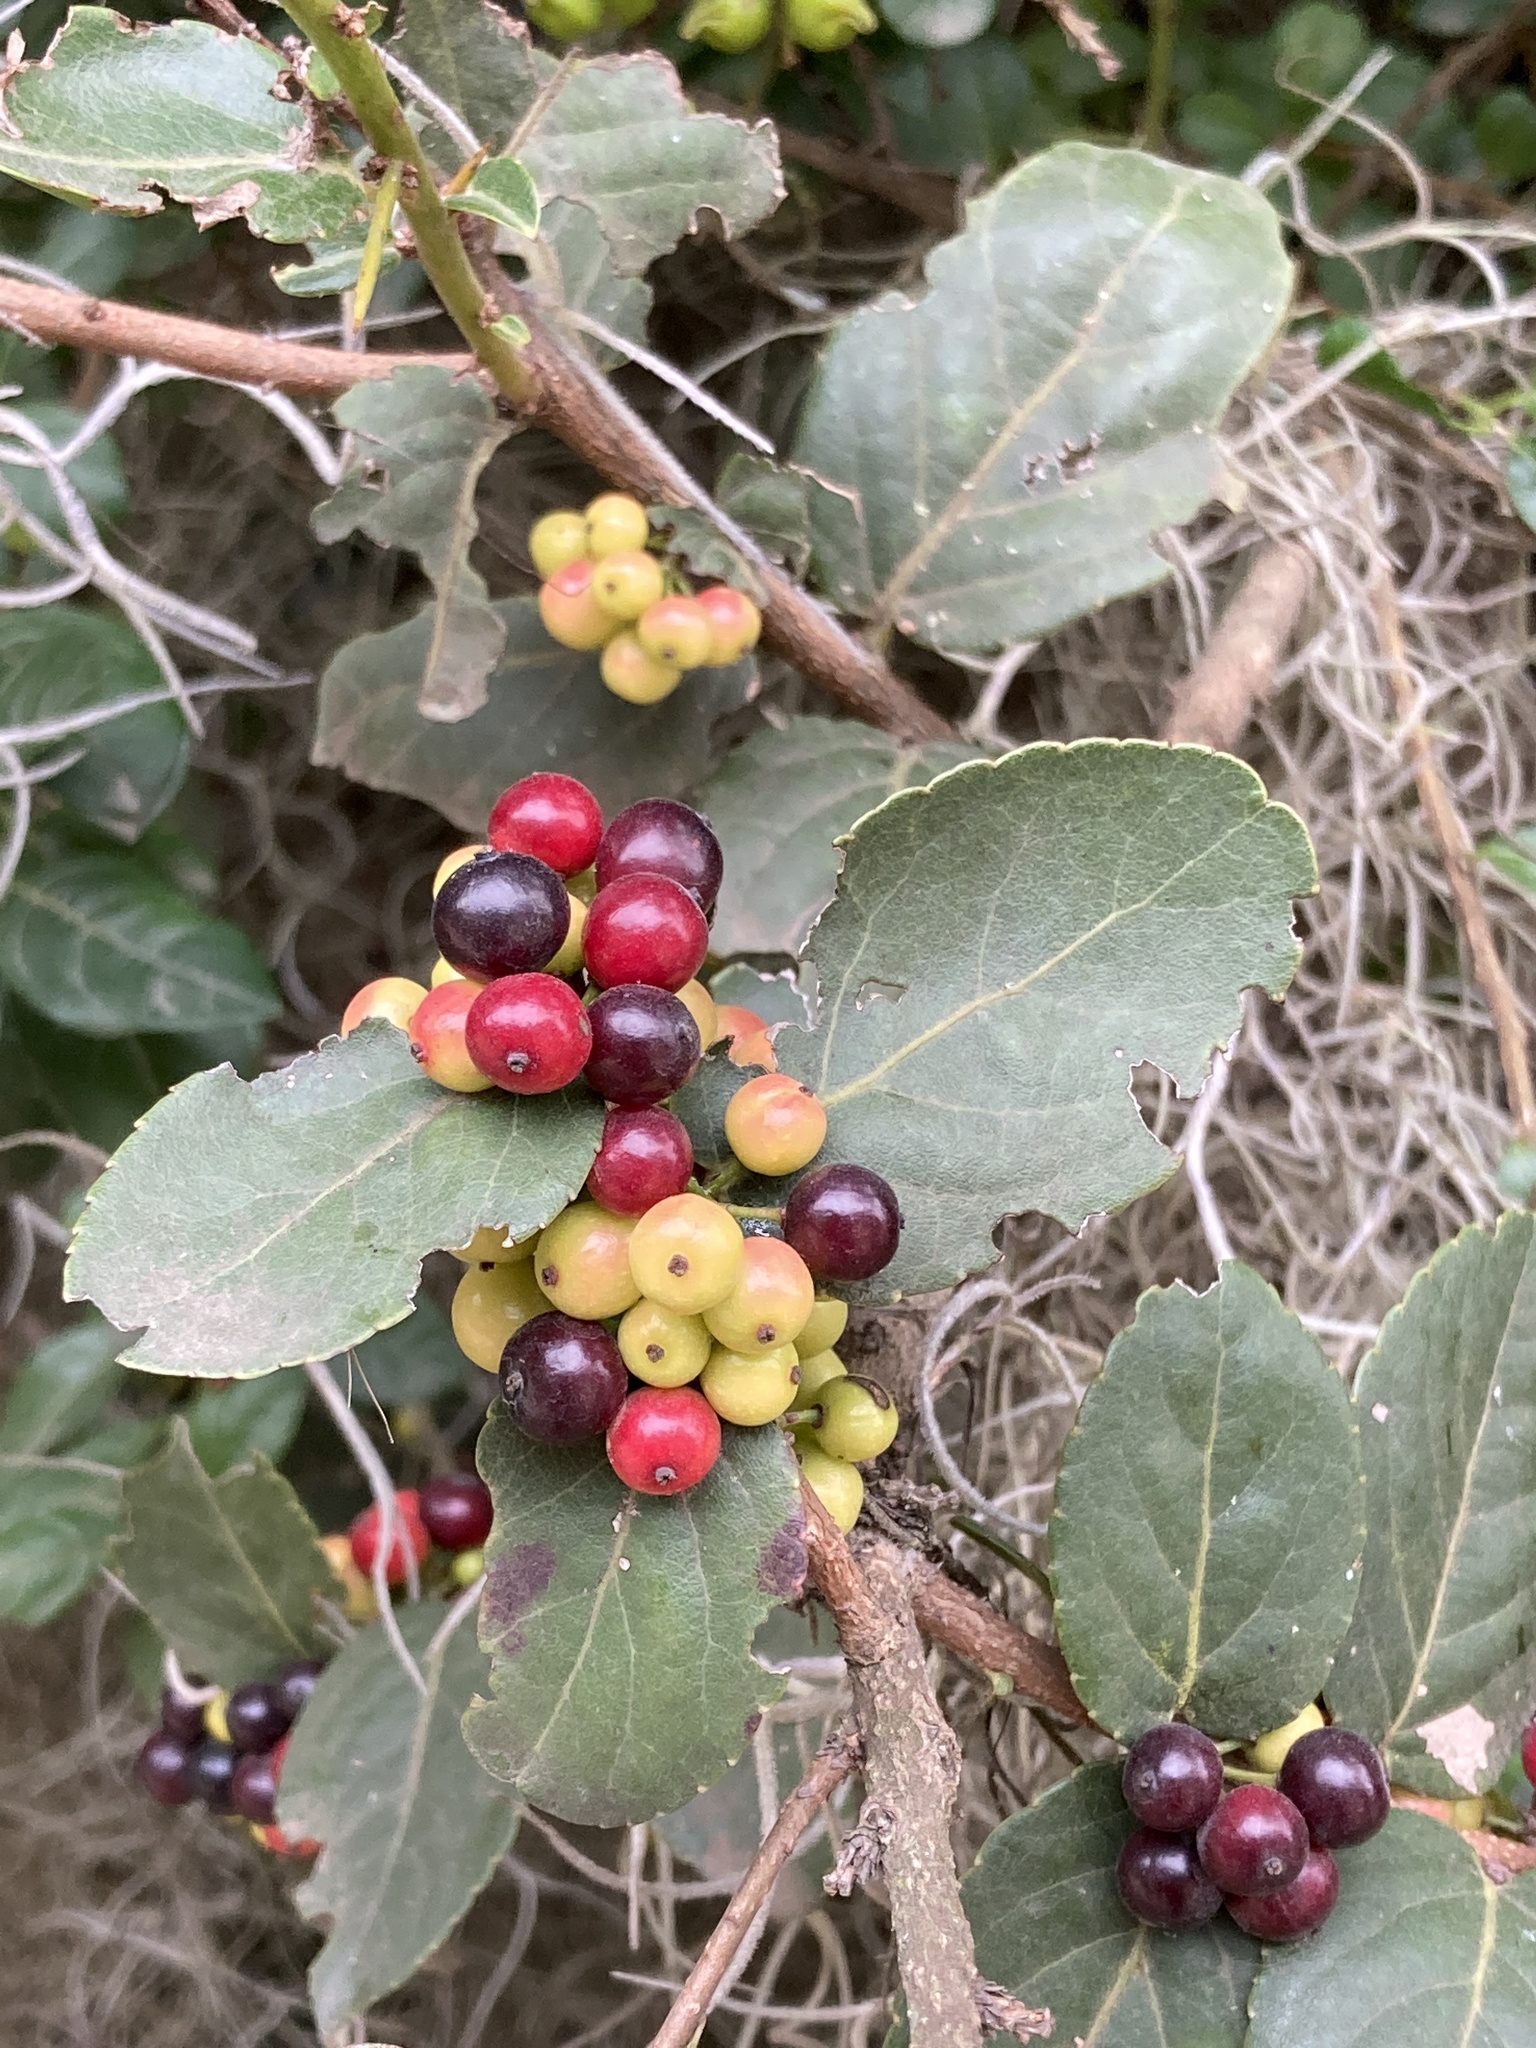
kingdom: Plantae
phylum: Tracheophyta
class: Magnoliopsida
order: Malpighiales
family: Salicaceae
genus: Xylosma
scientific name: Xylosma spiculifera
